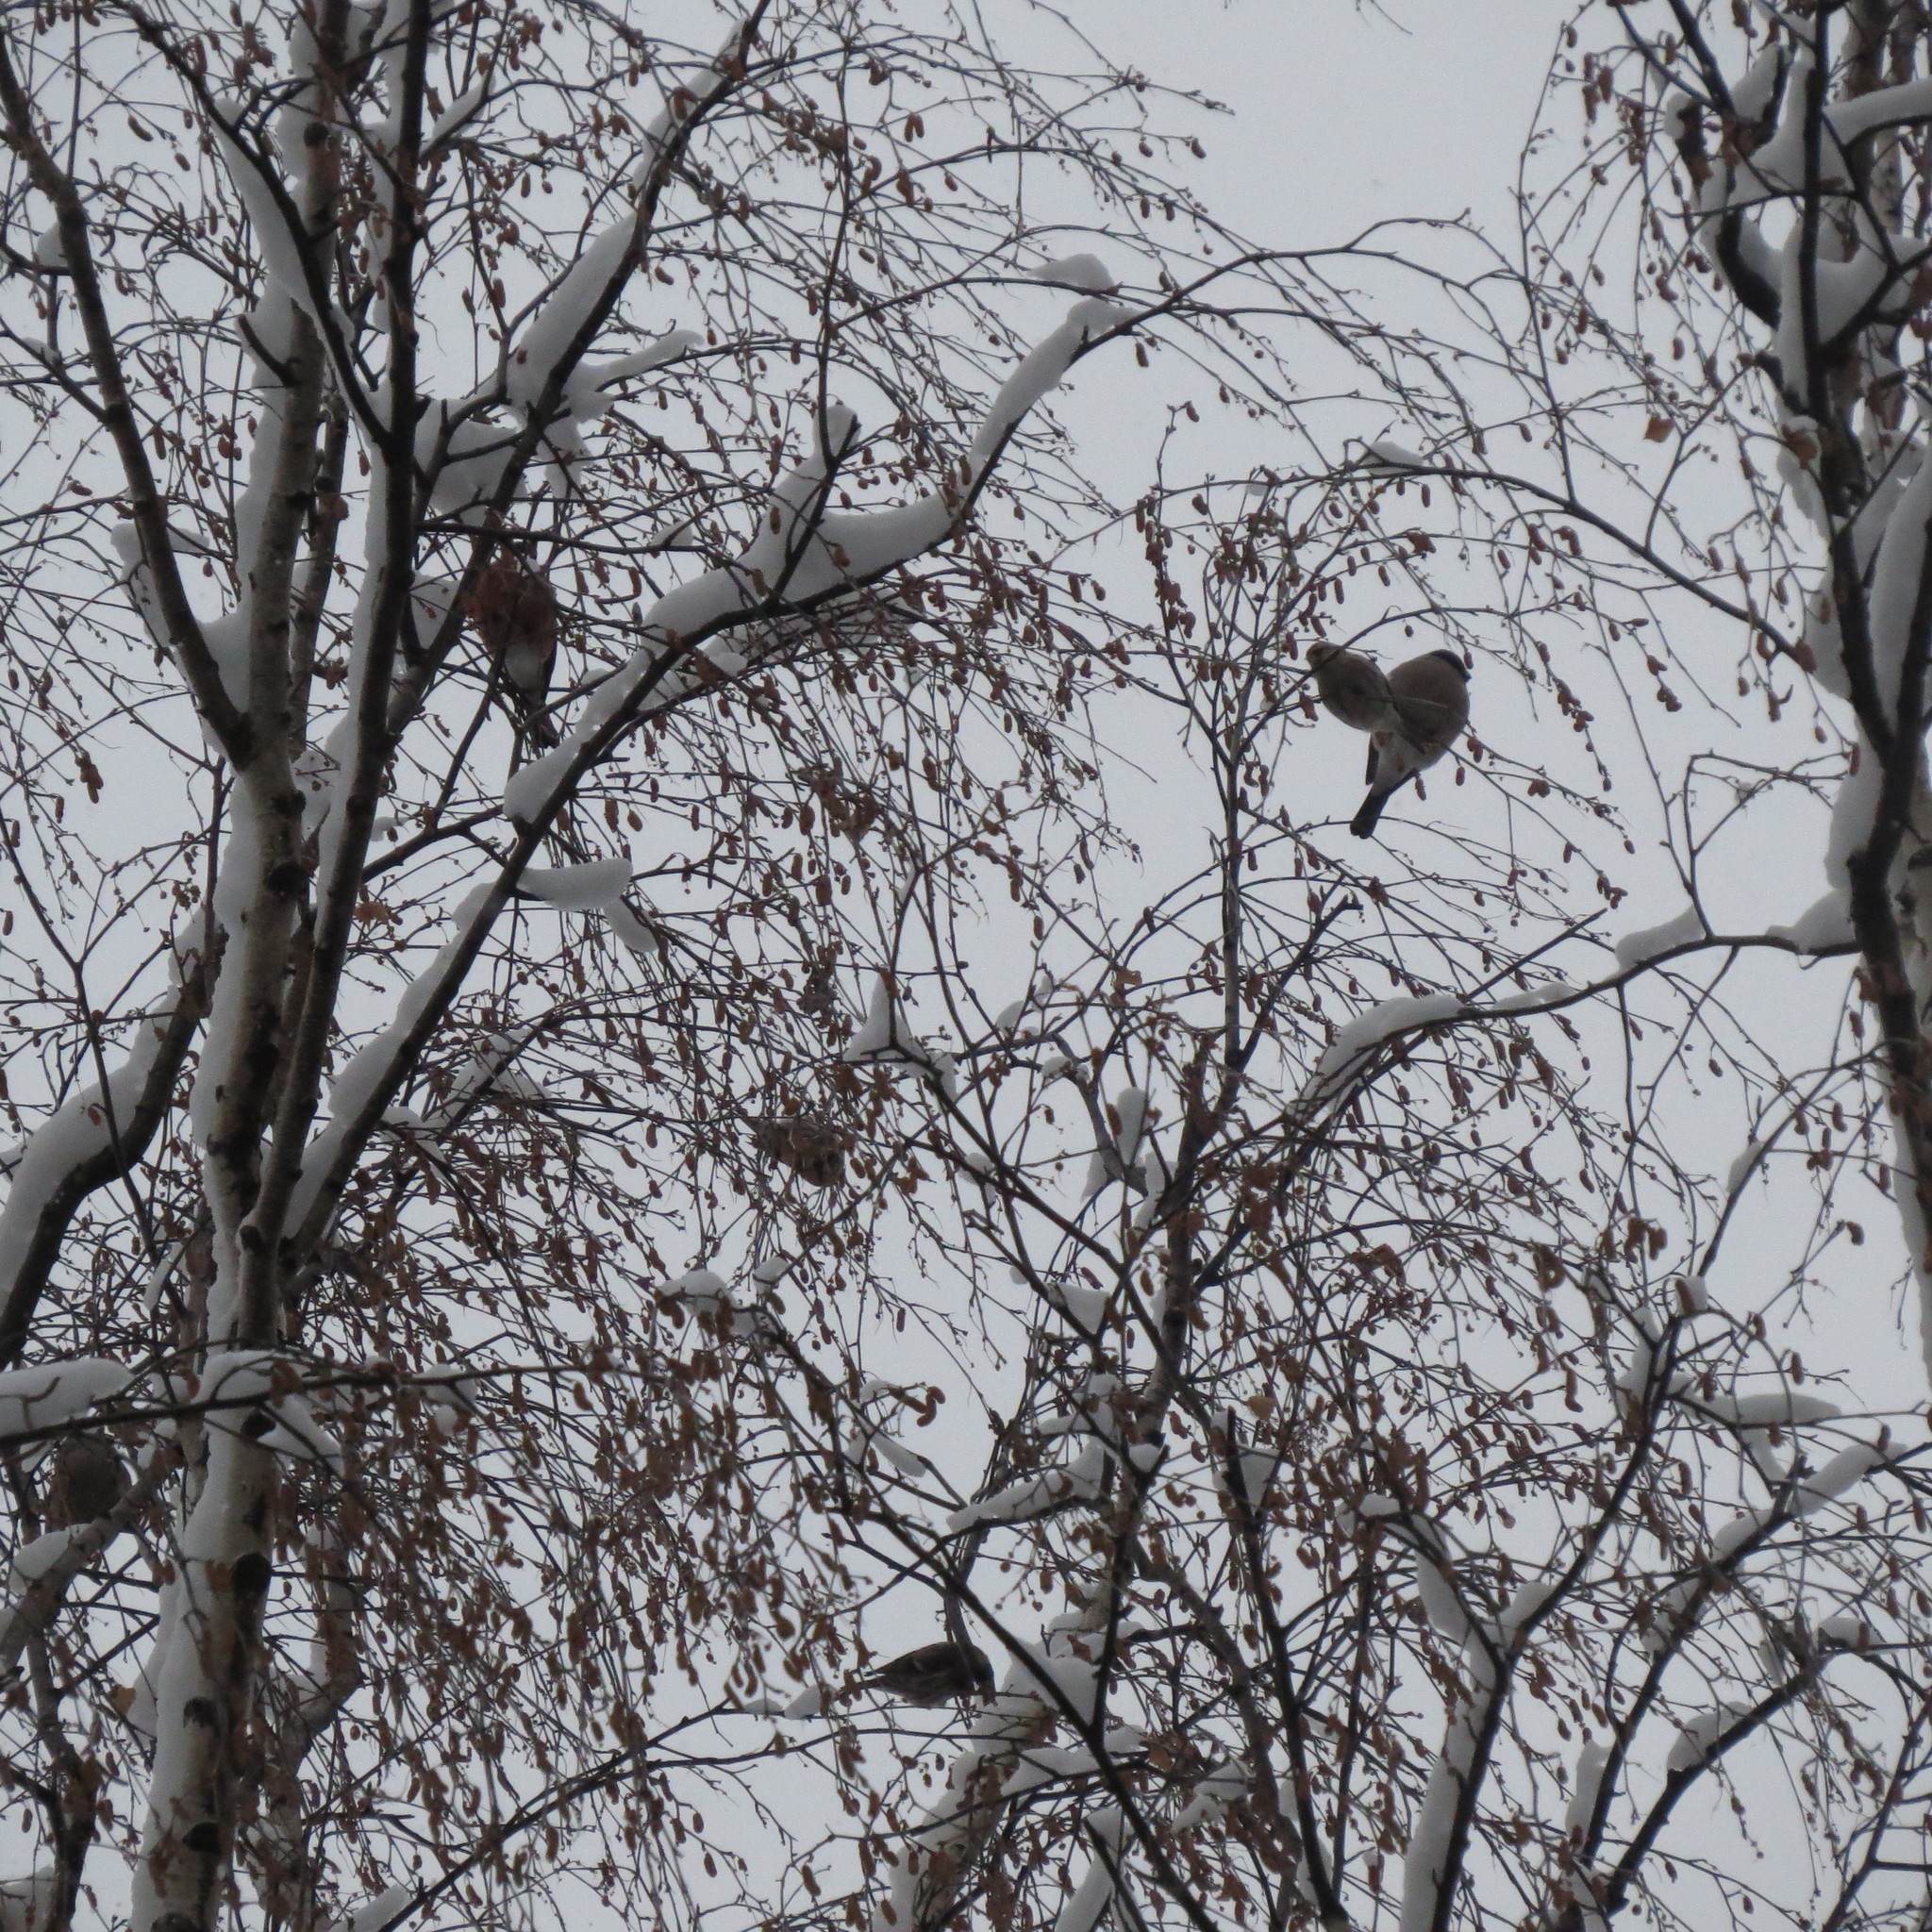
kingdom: Animalia
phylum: Chordata
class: Aves
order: Passeriformes
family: Fringillidae
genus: Acanthis
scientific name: Acanthis flammea
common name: Common redpoll
